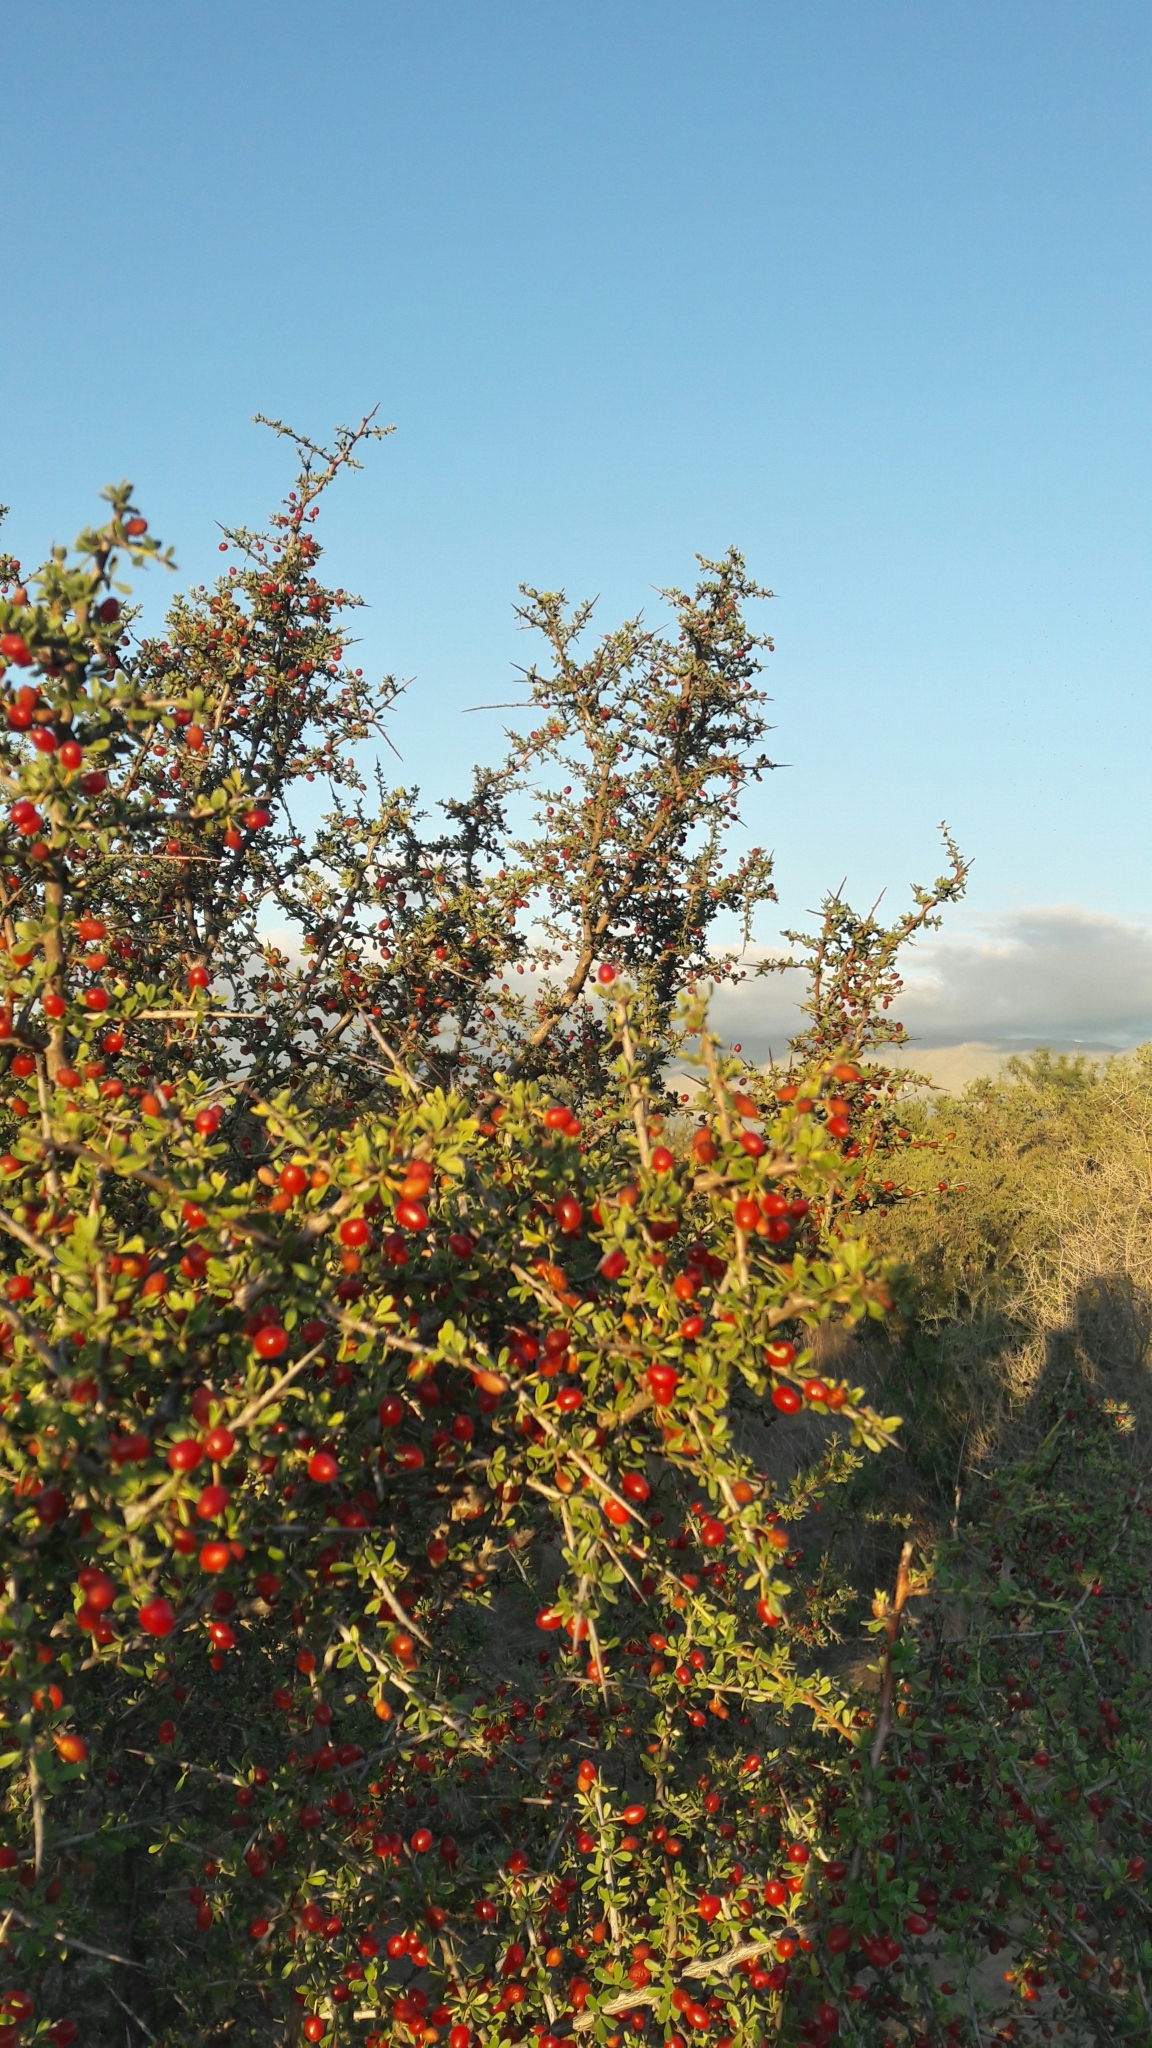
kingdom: Plantae
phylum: Tracheophyta
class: Magnoliopsida
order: Rosales
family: Rhamnaceae
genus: Condalia
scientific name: Condalia microphylla
